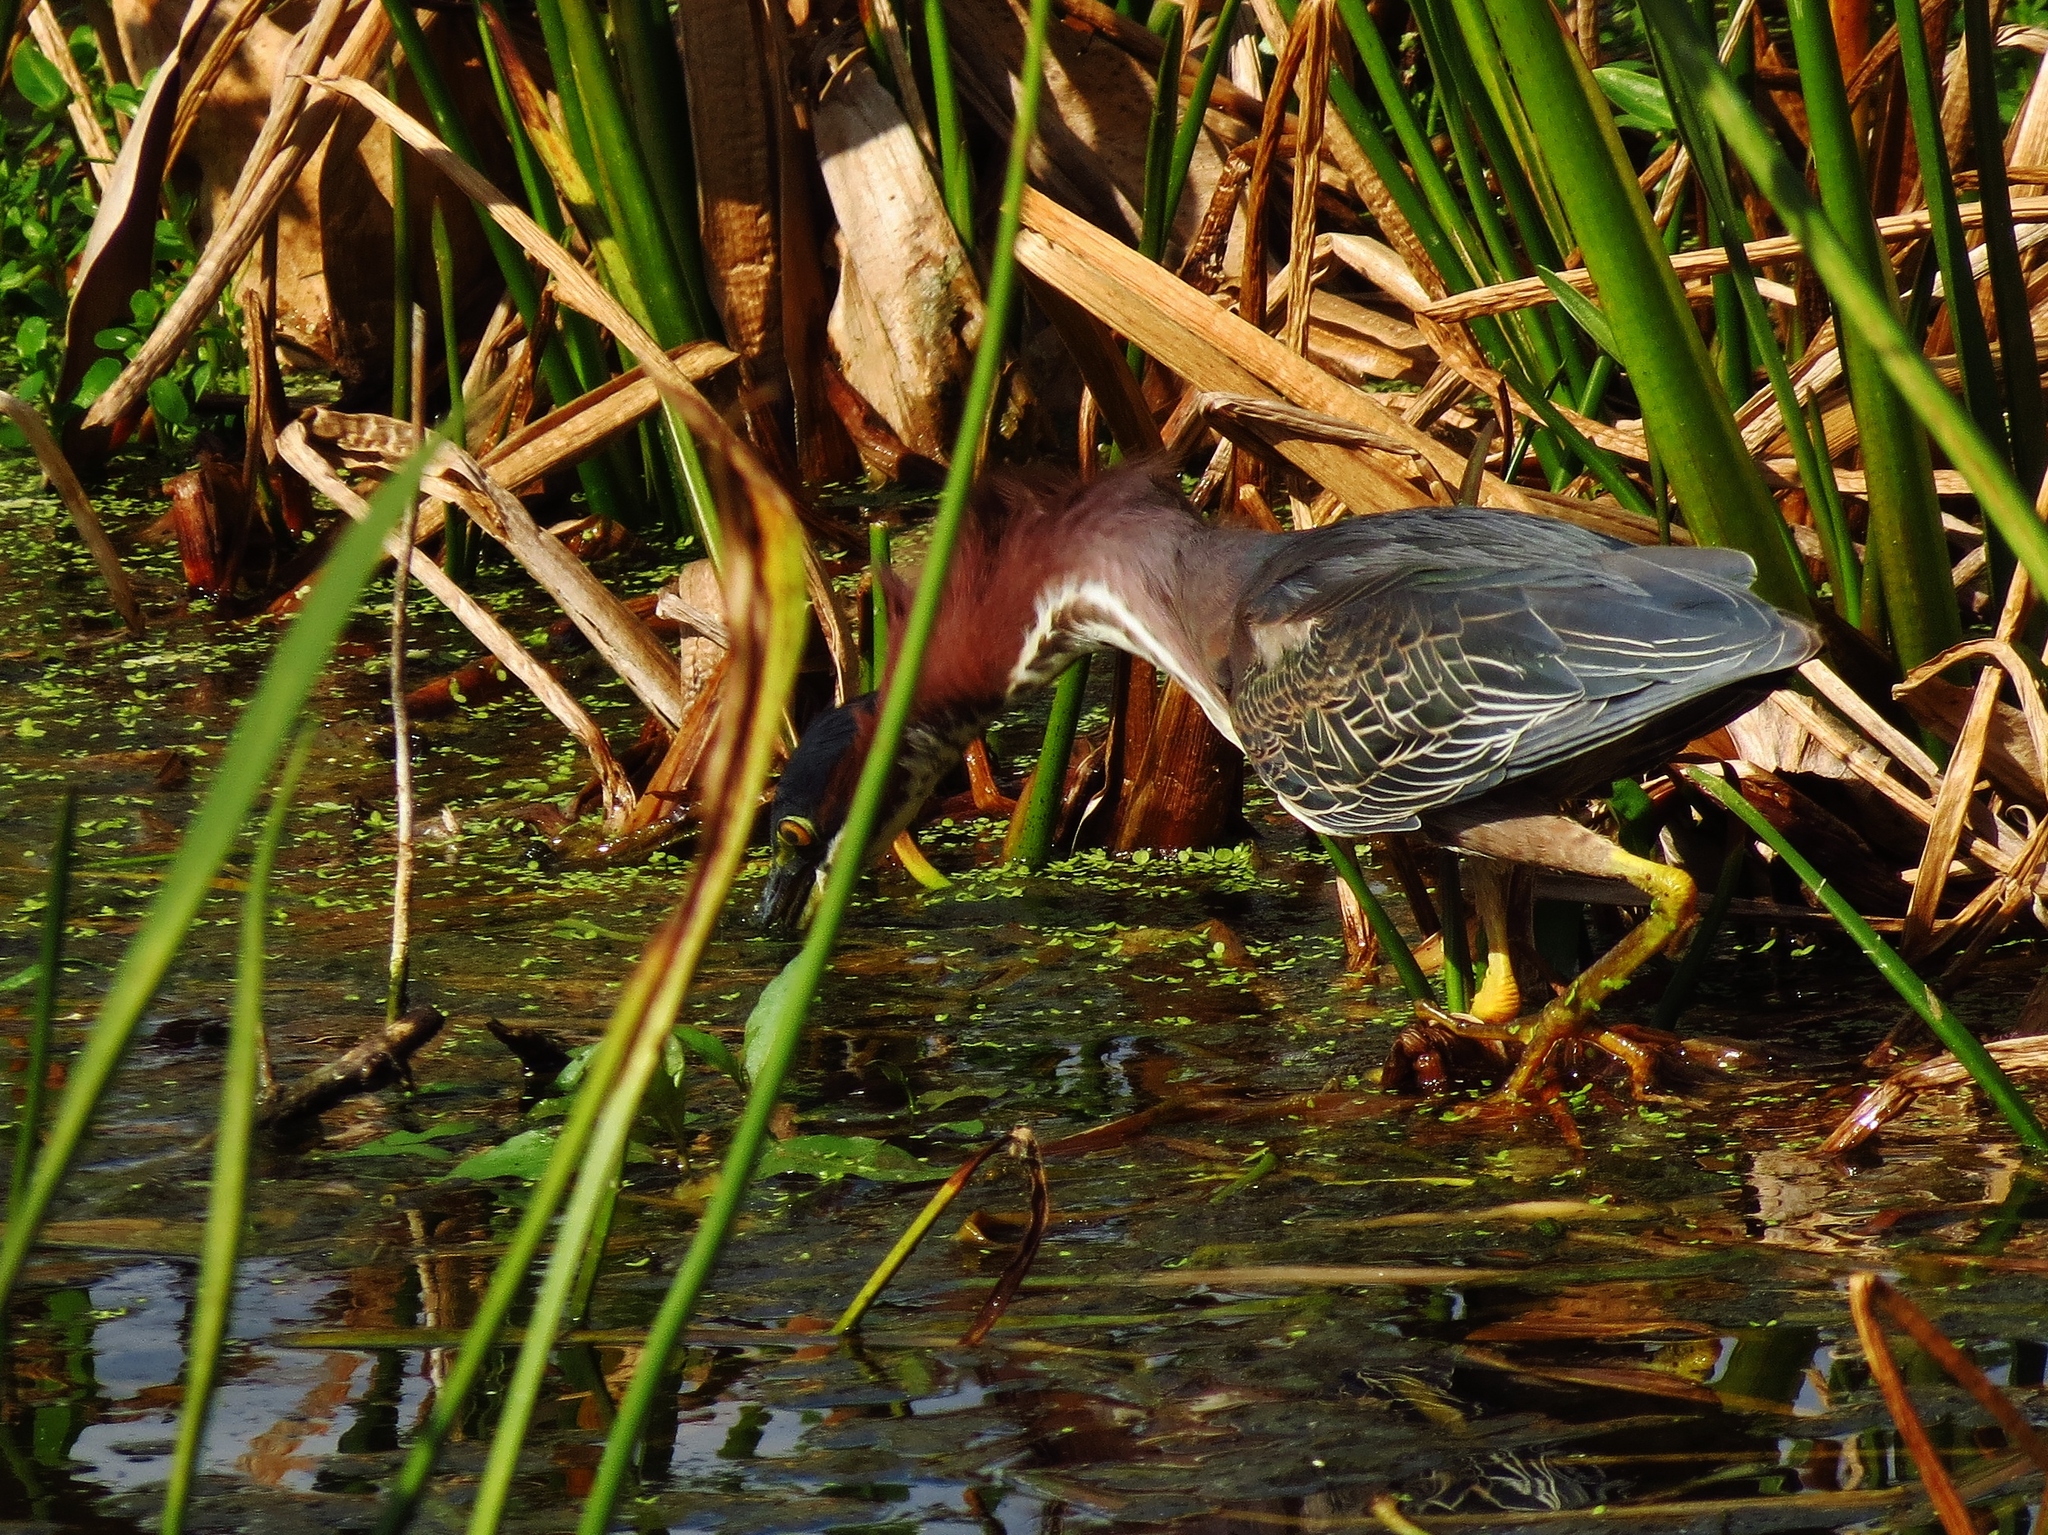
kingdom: Animalia
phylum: Chordata
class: Aves
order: Pelecaniformes
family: Ardeidae
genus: Butorides
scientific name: Butorides virescens
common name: Green heron
